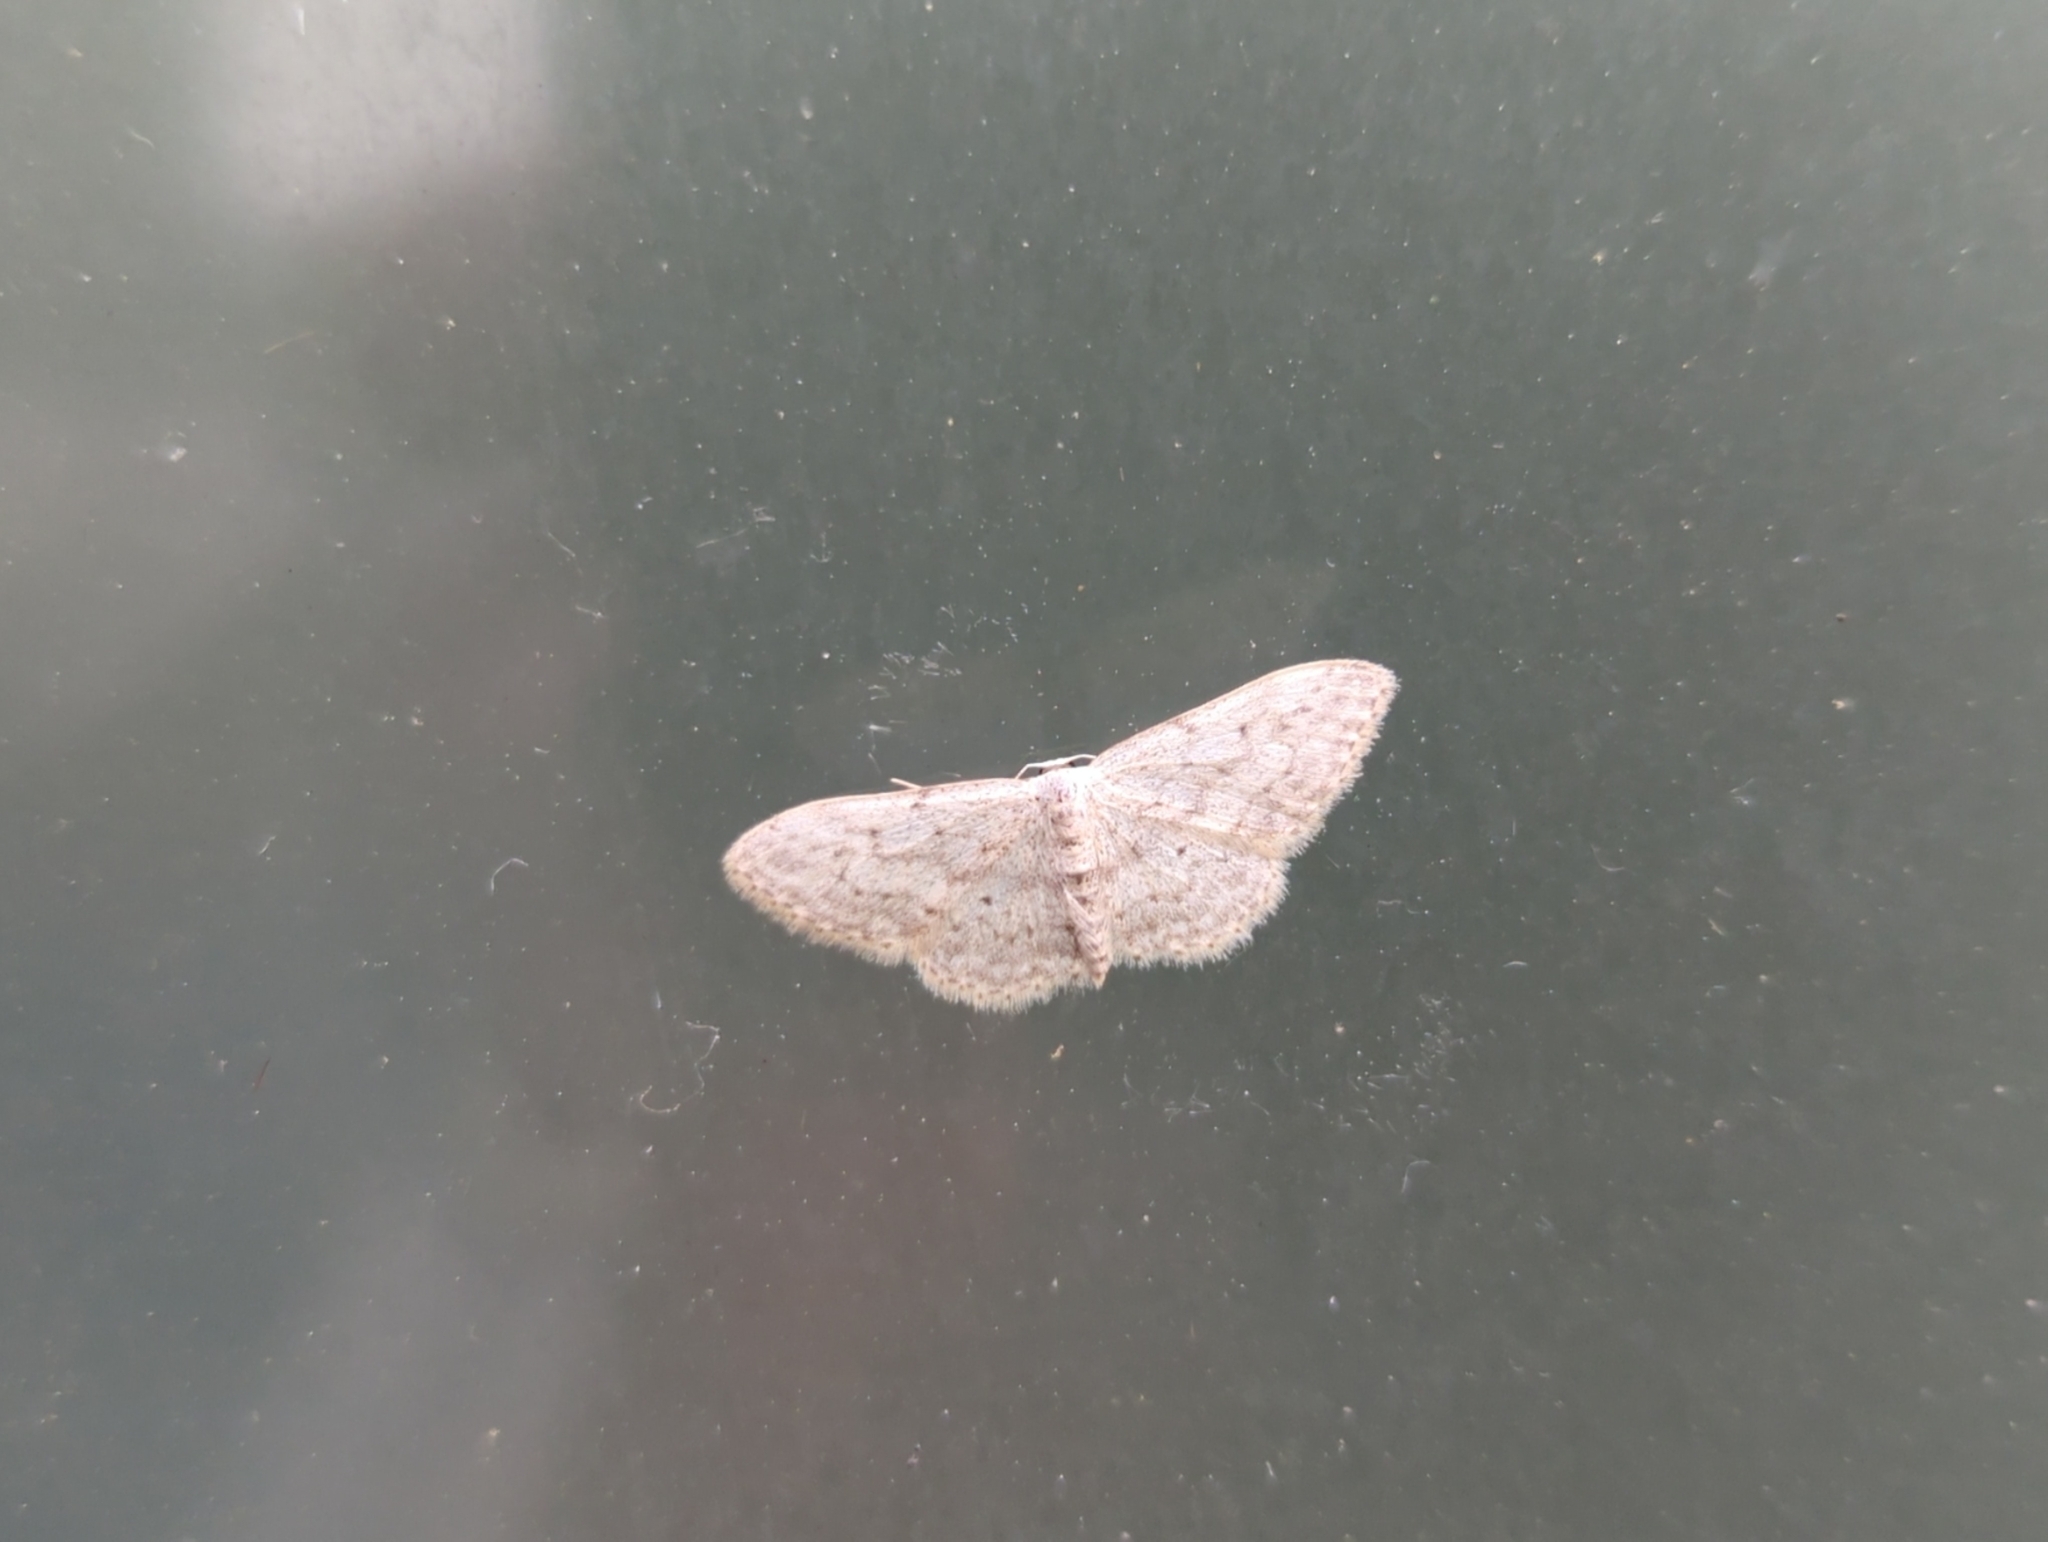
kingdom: Animalia
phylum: Arthropoda
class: Insecta
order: Lepidoptera
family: Geometridae
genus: Idaea
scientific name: Idaea seriata
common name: Small dusty wave
